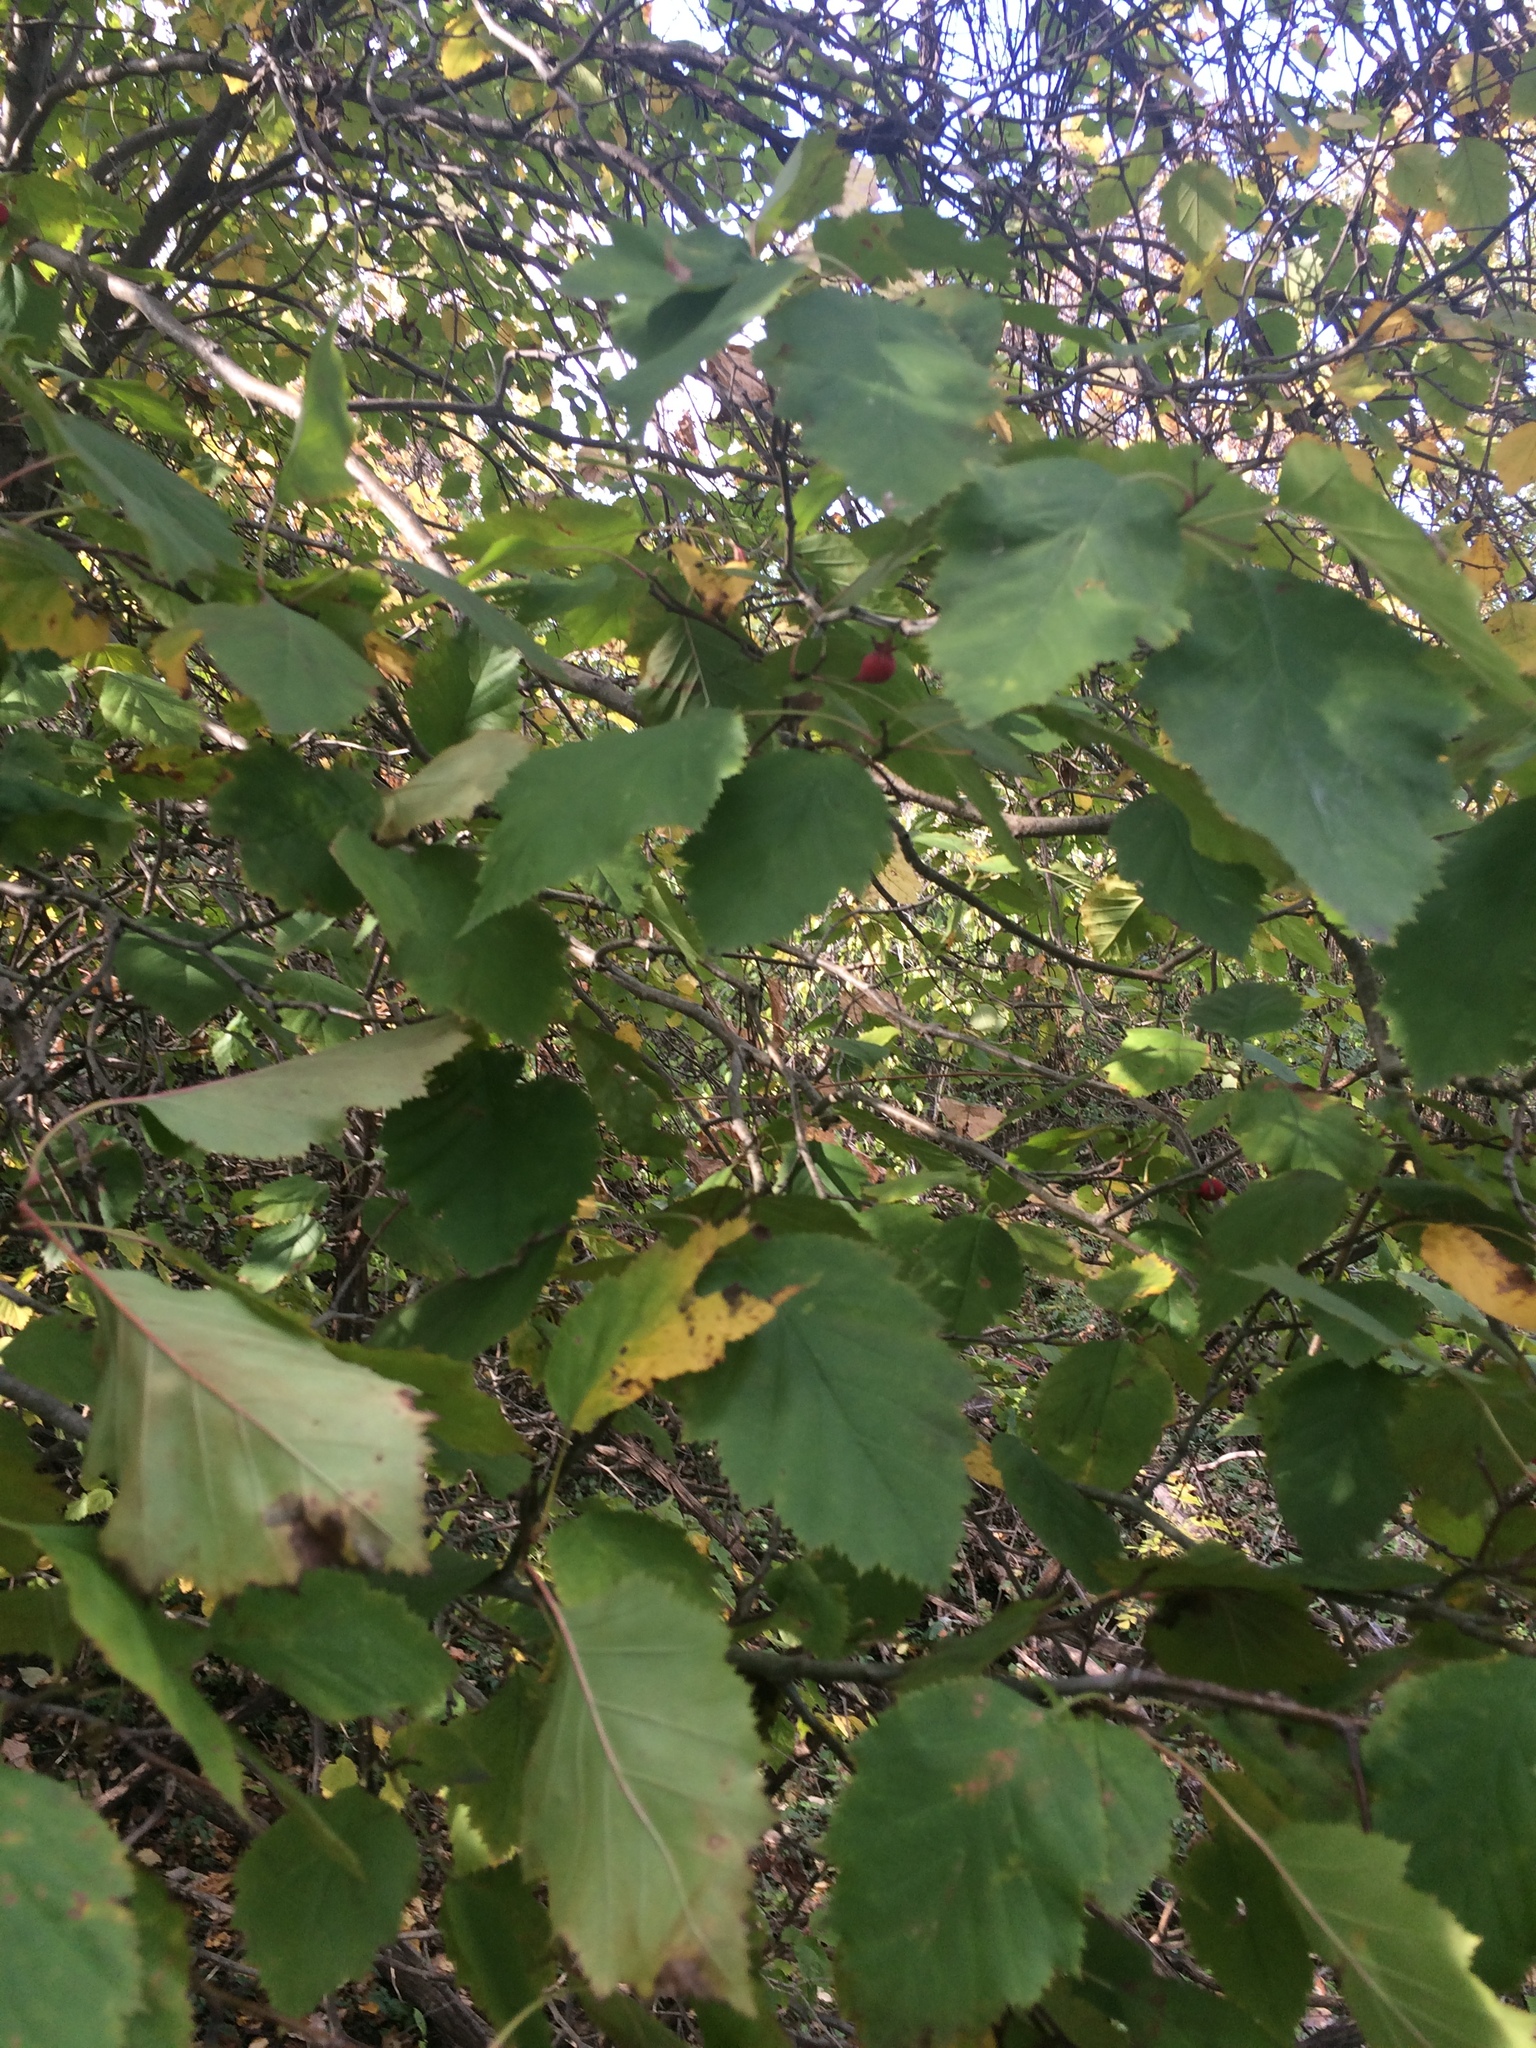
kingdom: Plantae
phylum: Tracheophyta
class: Magnoliopsida
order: Rosales
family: Rosaceae
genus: Crataegus
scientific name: Crataegus holmesiana
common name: Holmes' hawthorn
